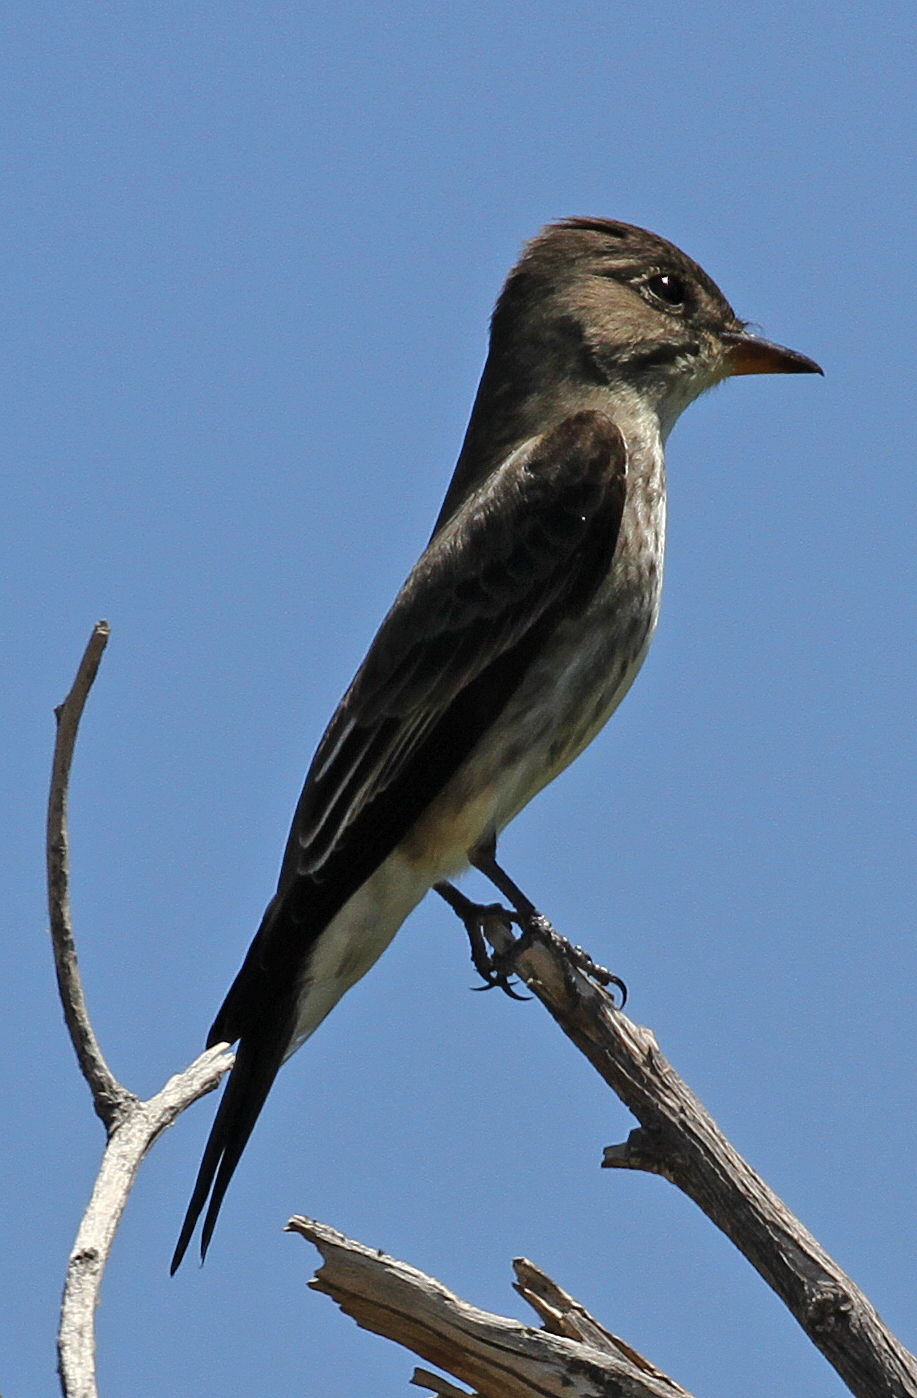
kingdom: Animalia
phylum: Chordata
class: Aves
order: Passeriformes
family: Tyrannidae
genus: Contopus
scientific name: Contopus sordidulus
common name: Western wood-pewee
